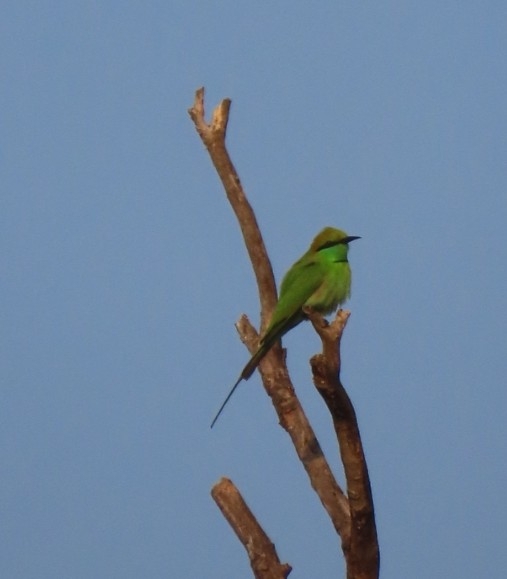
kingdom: Animalia
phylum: Chordata
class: Aves
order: Coraciiformes
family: Meropidae
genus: Merops
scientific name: Merops orientalis
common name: Green bee-eater
